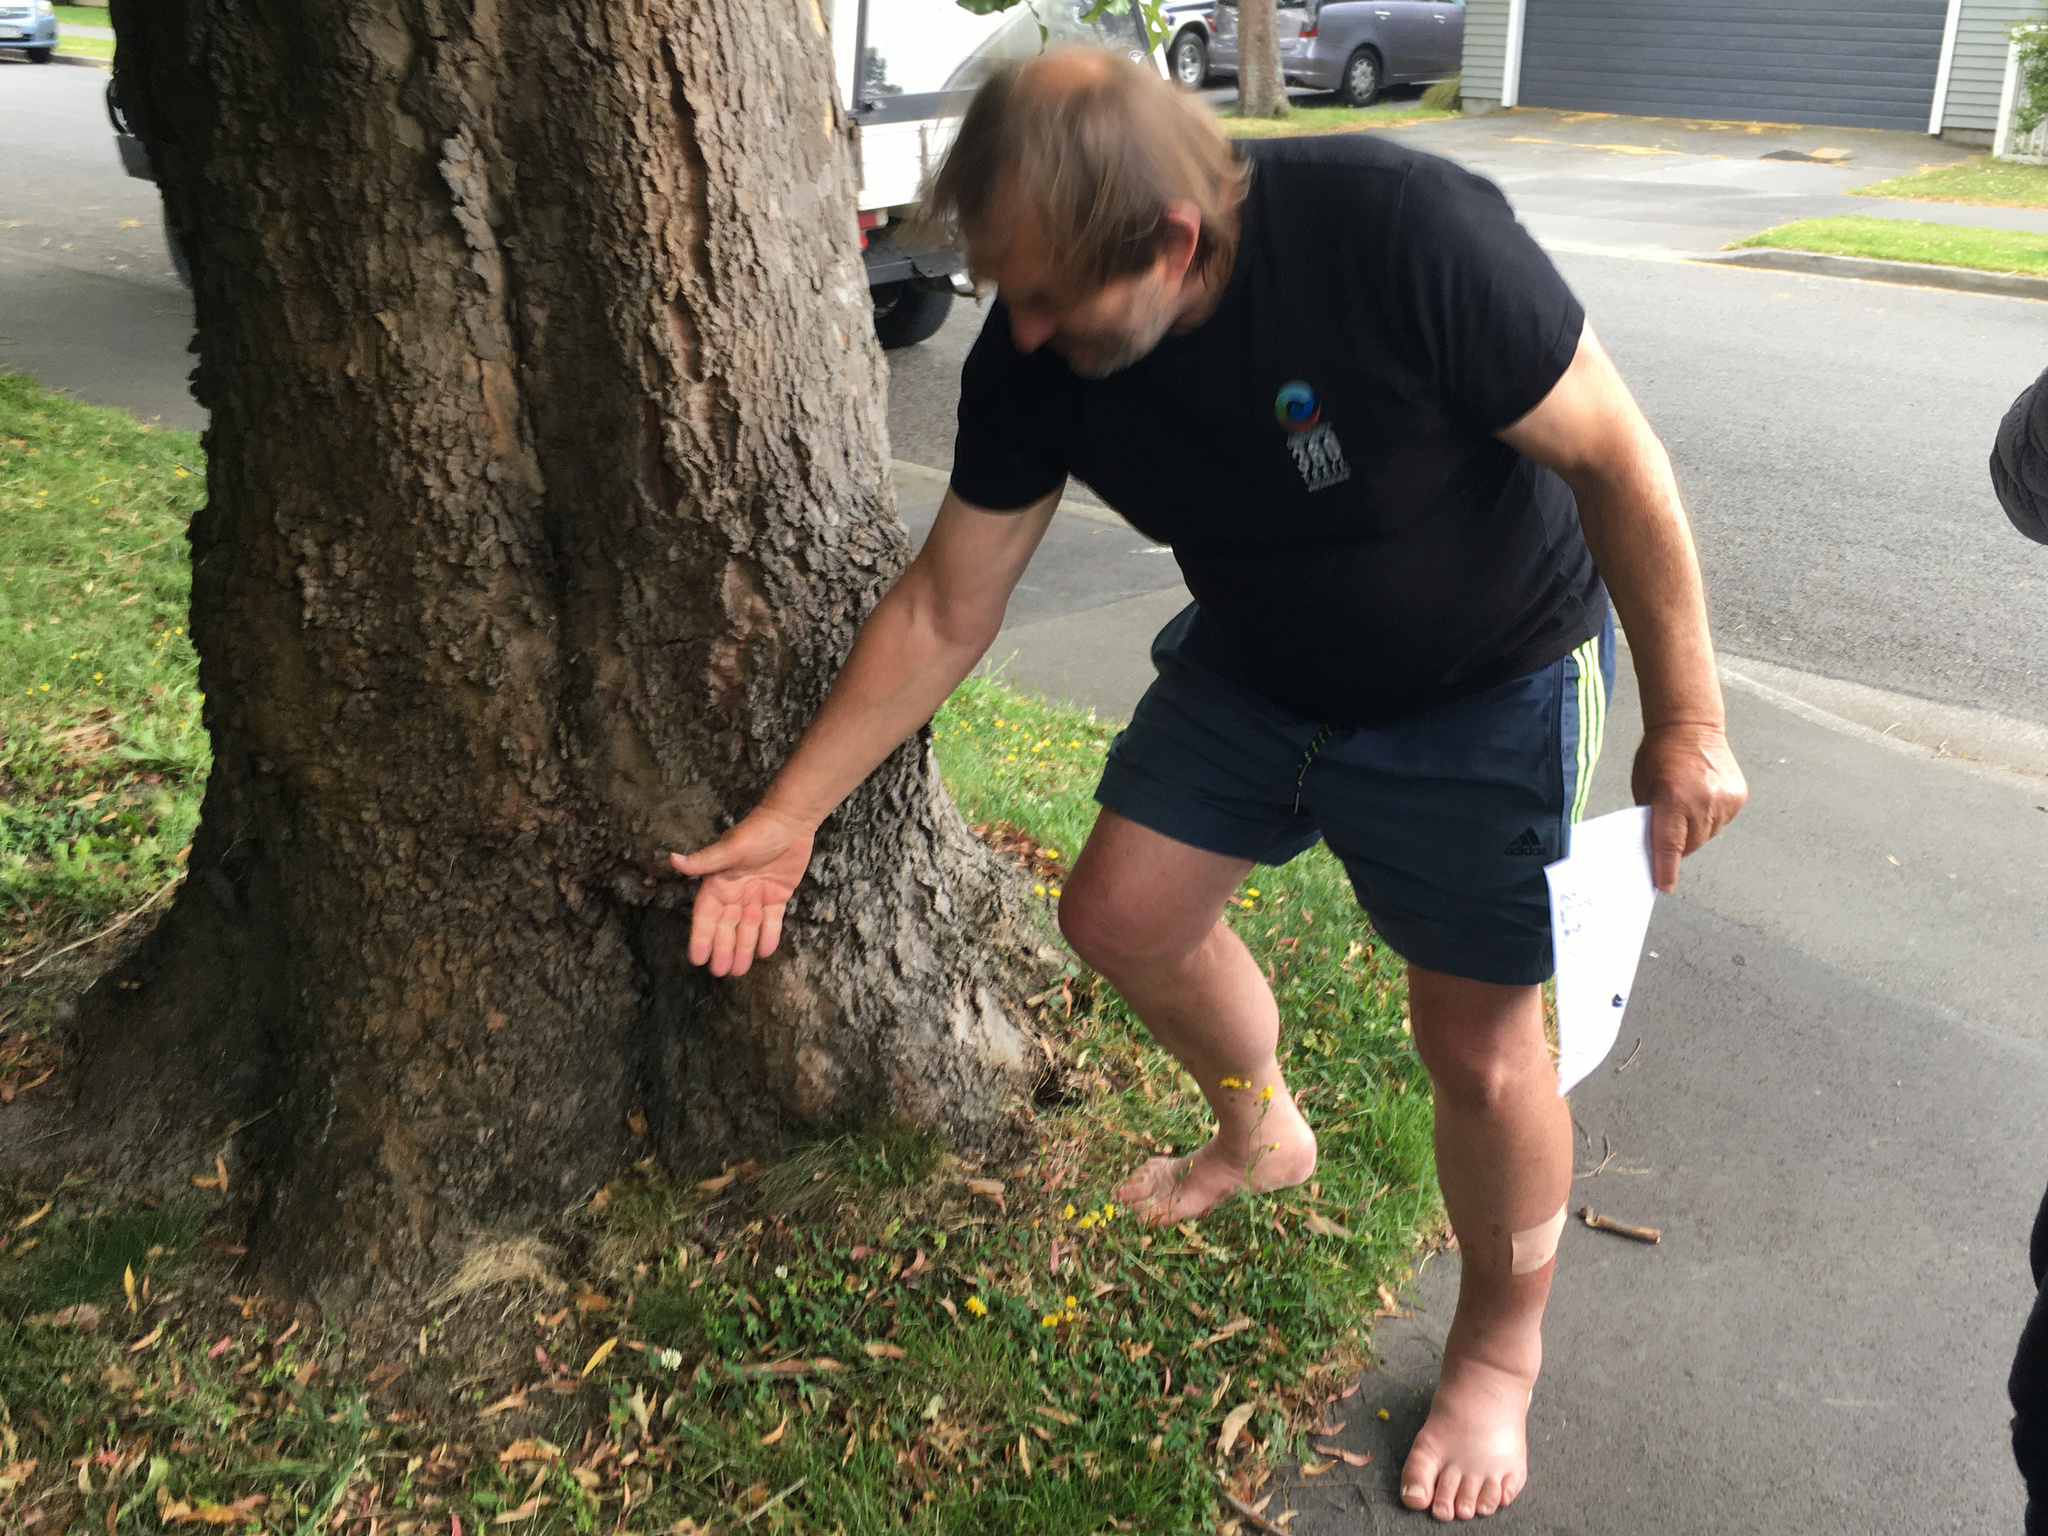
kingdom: Plantae
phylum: Tracheophyta
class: Liliopsida
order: Poales
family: Poaceae
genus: Poa
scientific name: Poa imbecilla
